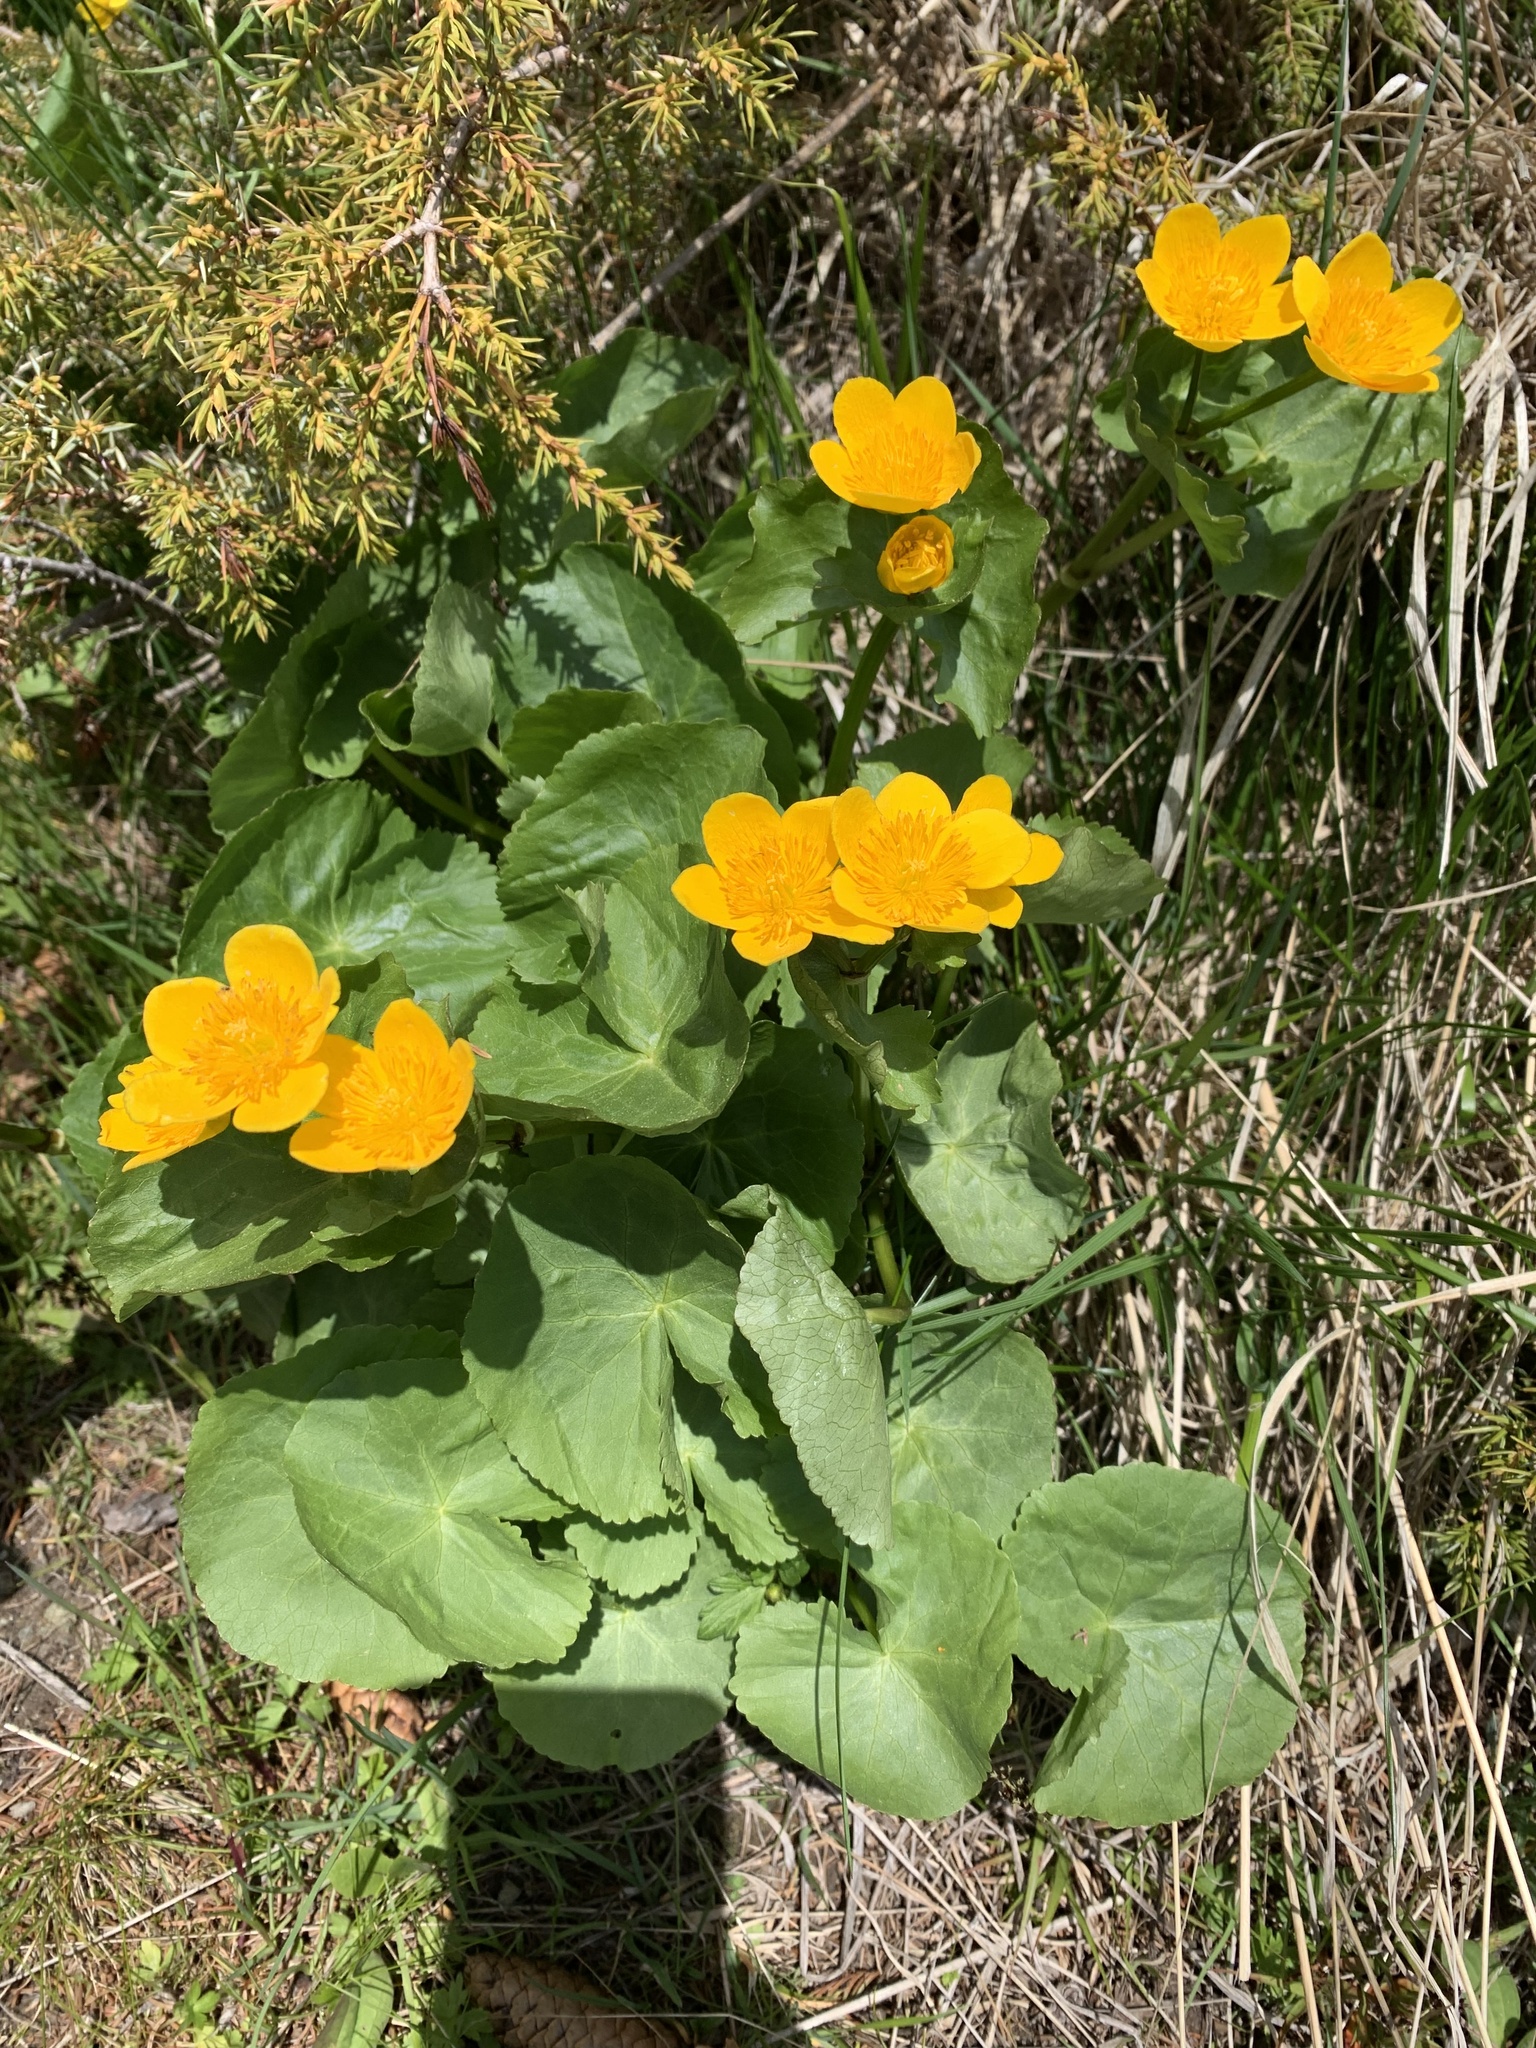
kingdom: Plantae
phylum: Tracheophyta
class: Magnoliopsida
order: Ranunculales
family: Ranunculaceae
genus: Caltha
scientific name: Caltha palustris
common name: Marsh marigold
